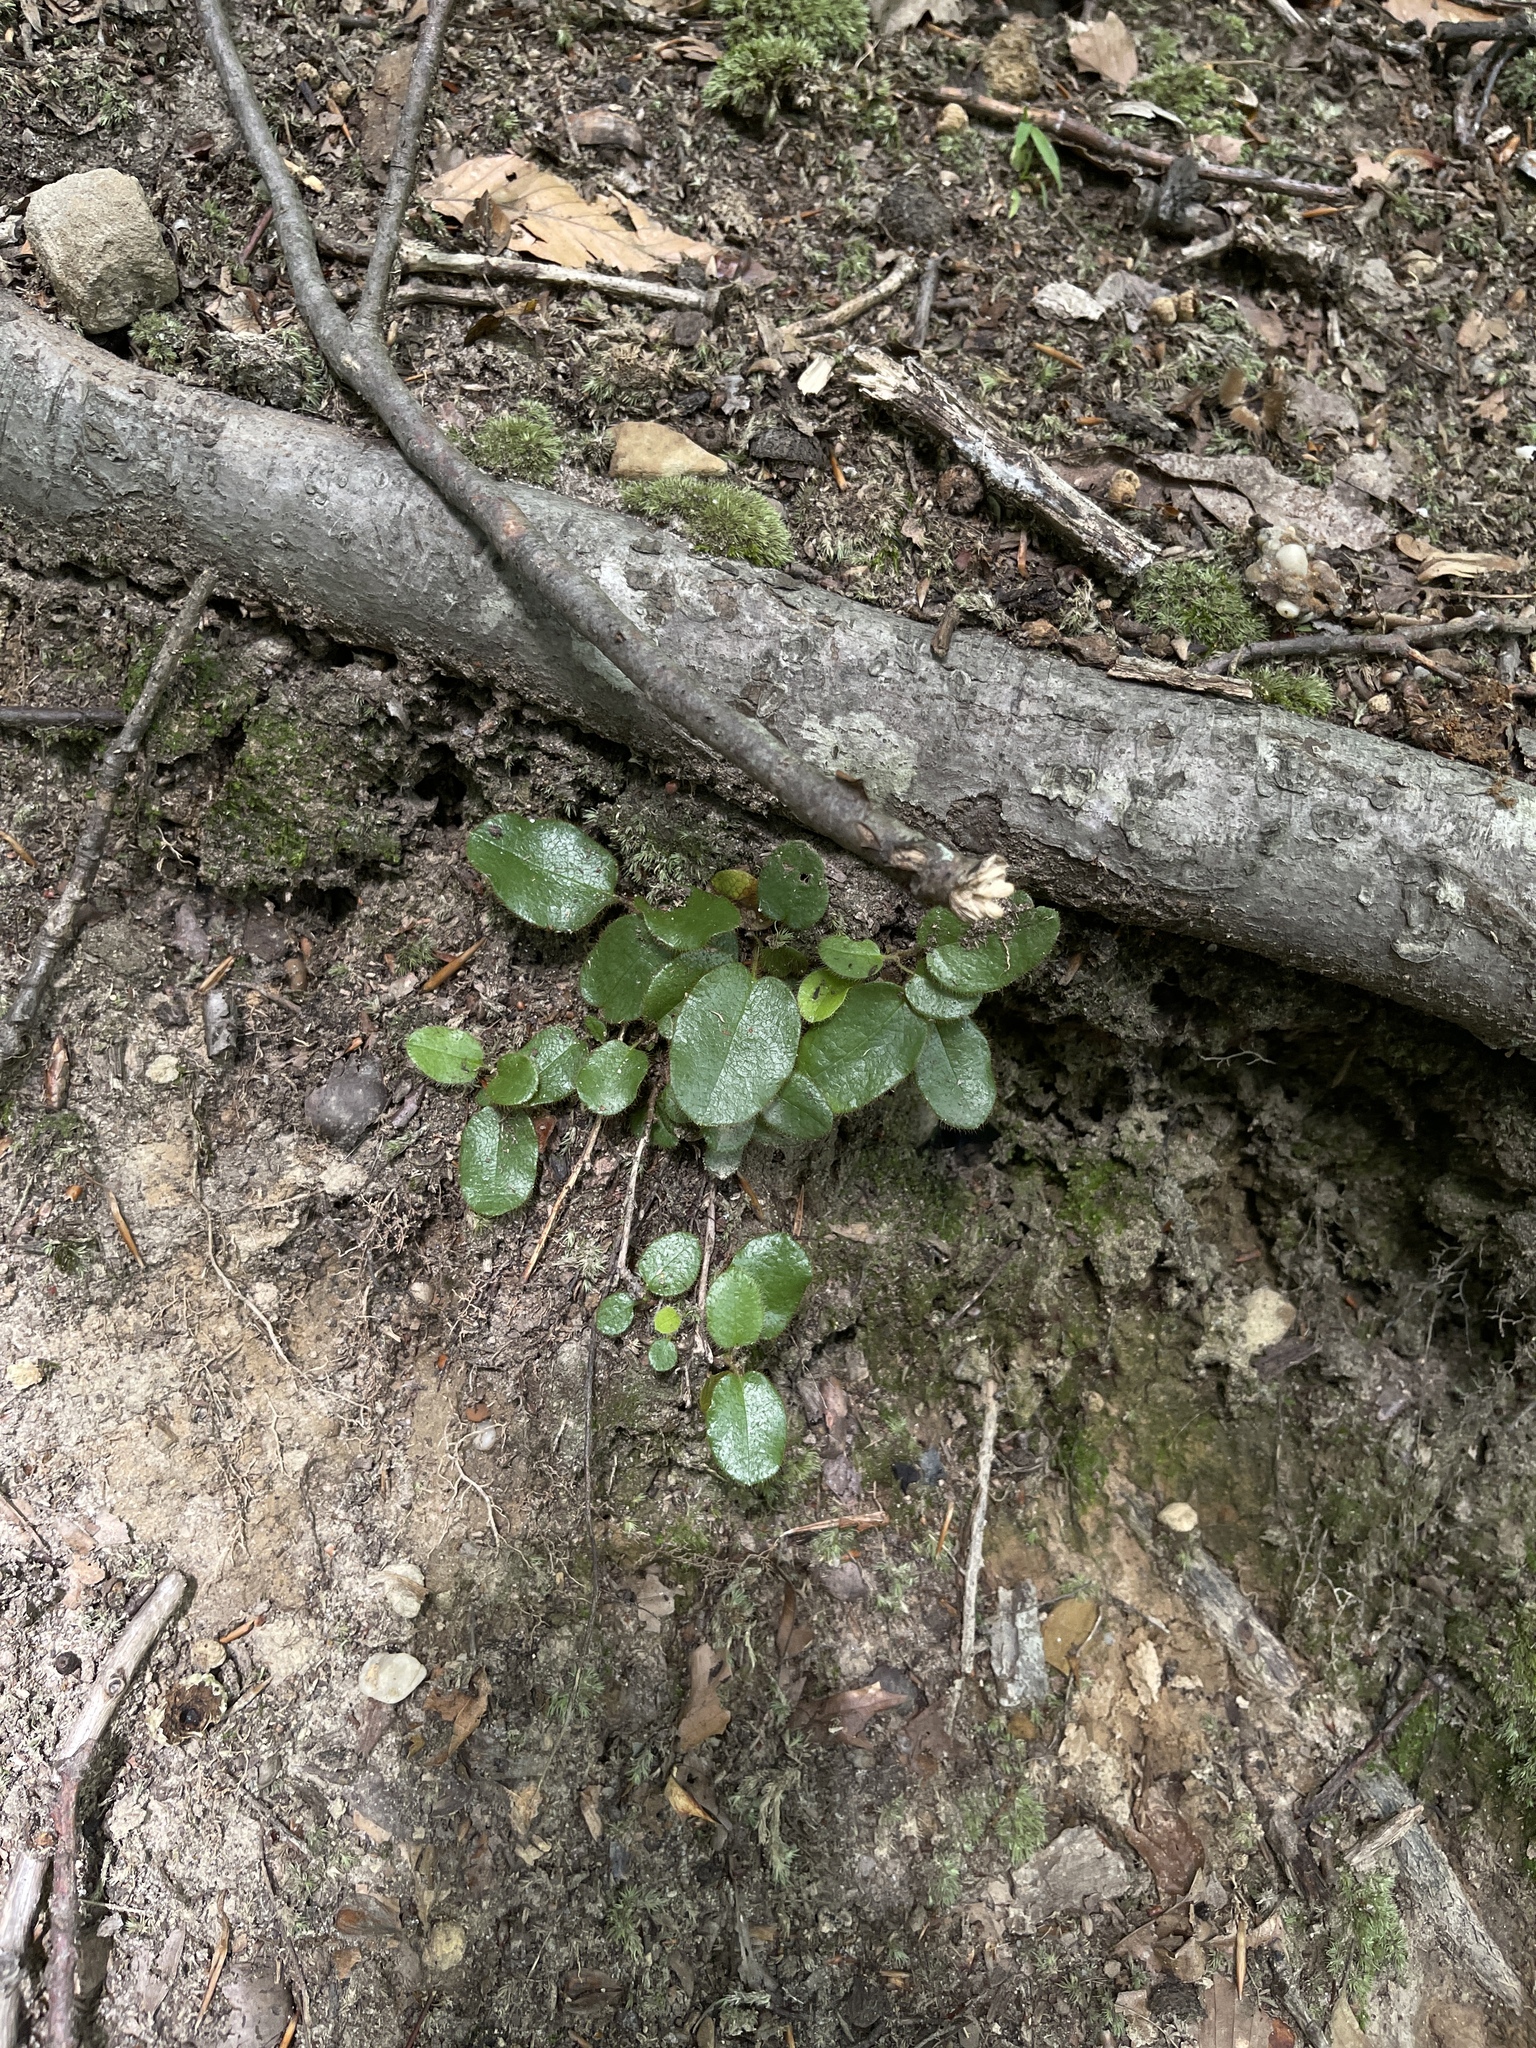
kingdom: Plantae
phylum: Tracheophyta
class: Magnoliopsida
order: Ericales
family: Ericaceae
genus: Epigaea
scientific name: Epigaea repens
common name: Gravelroot
